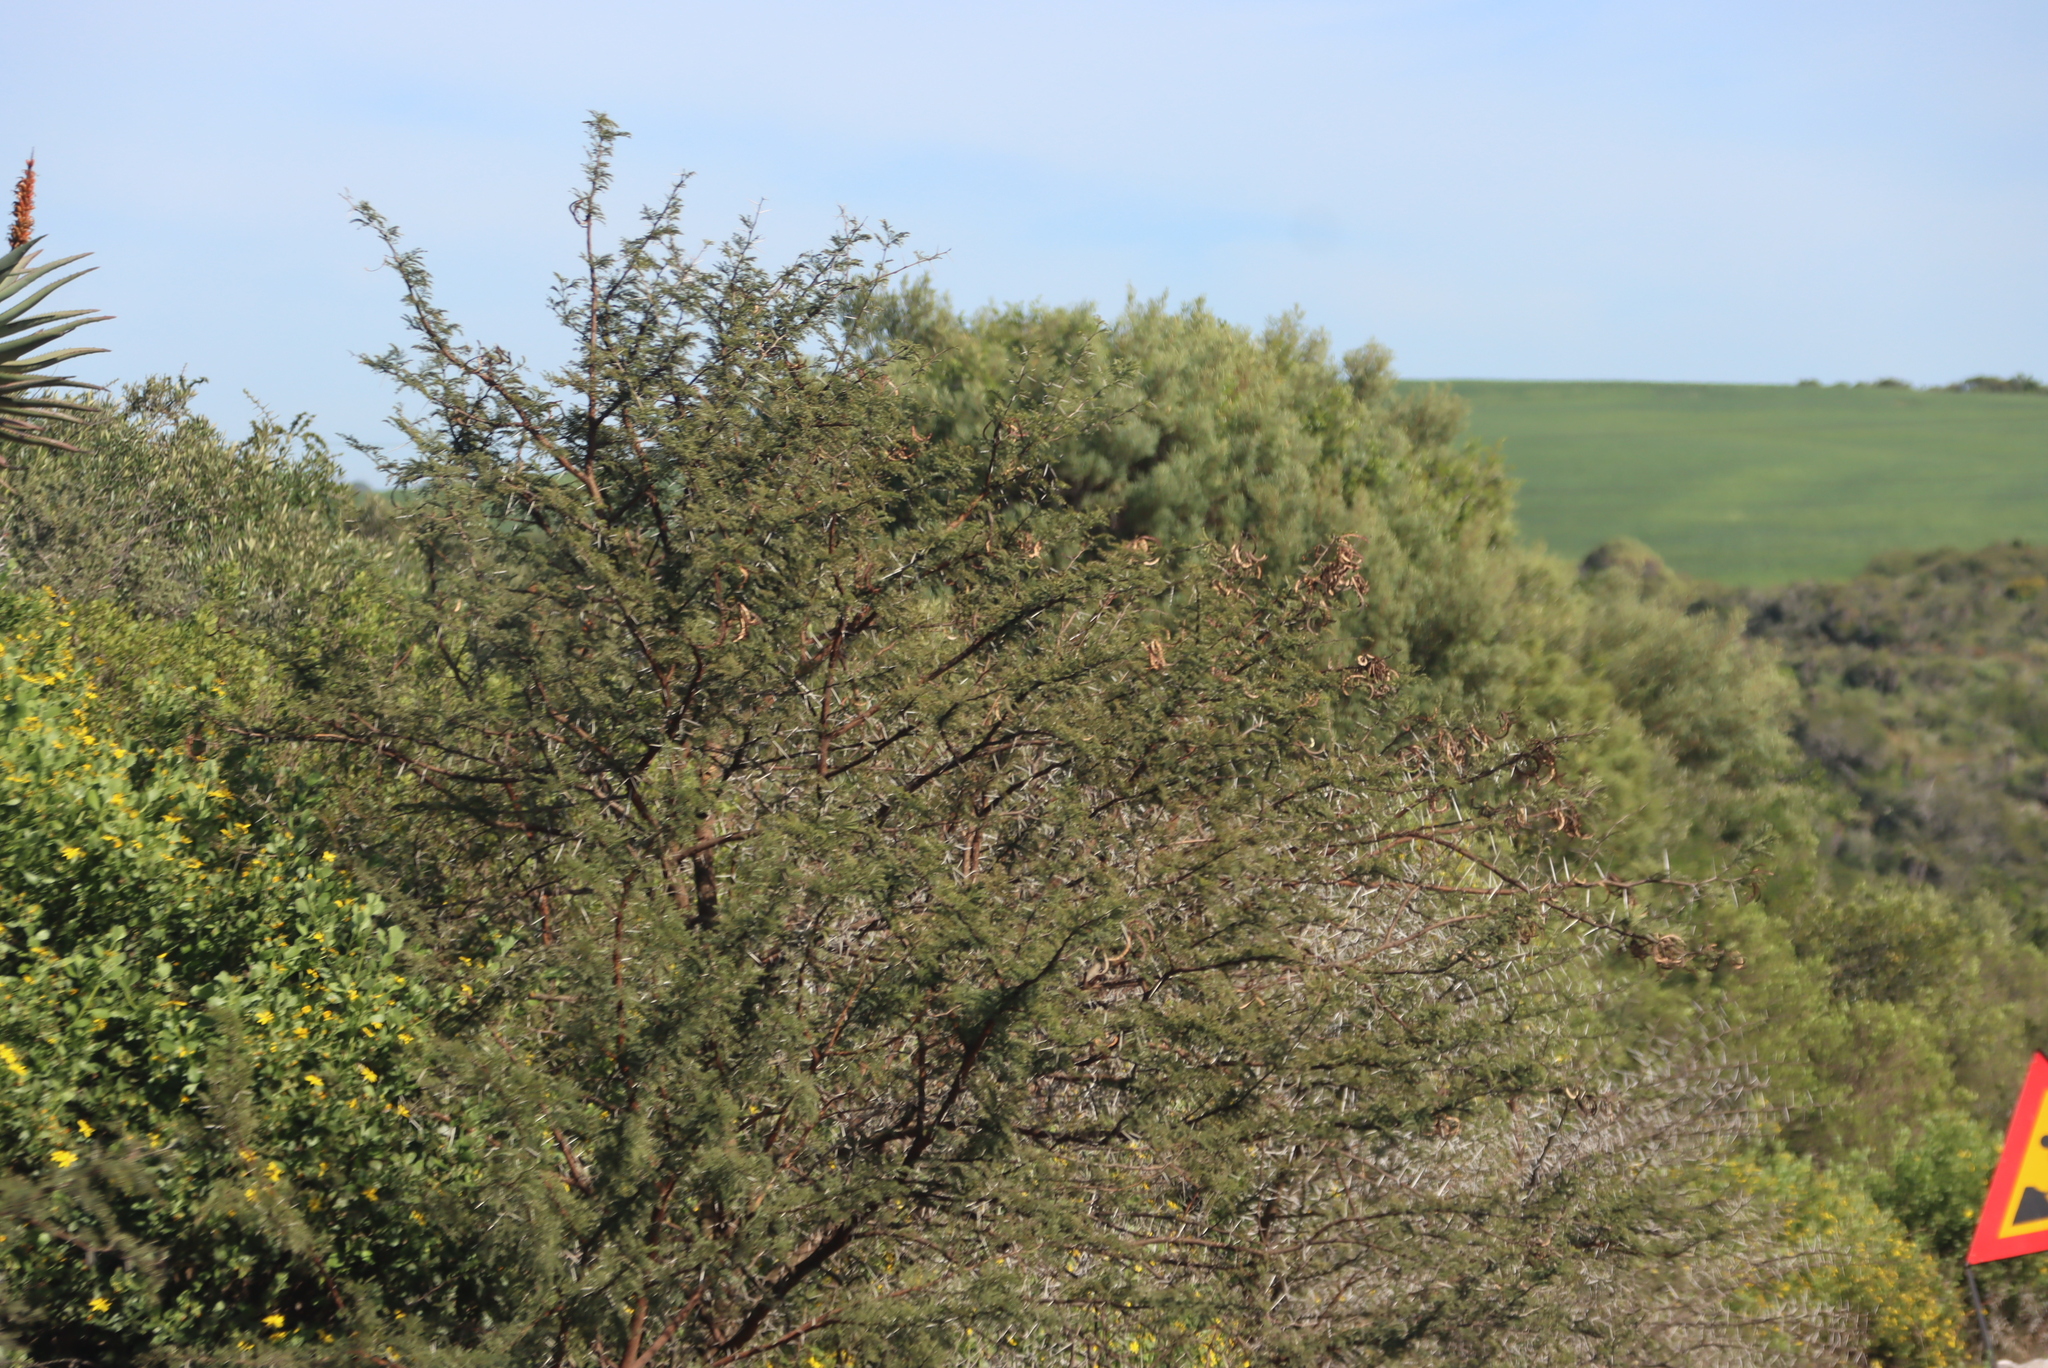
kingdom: Plantae
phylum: Tracheophyta
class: Magnoliopsida
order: Fabales
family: Fabaceae
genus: Vachellia
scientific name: Vachellia karroo
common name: Sweet thorn
